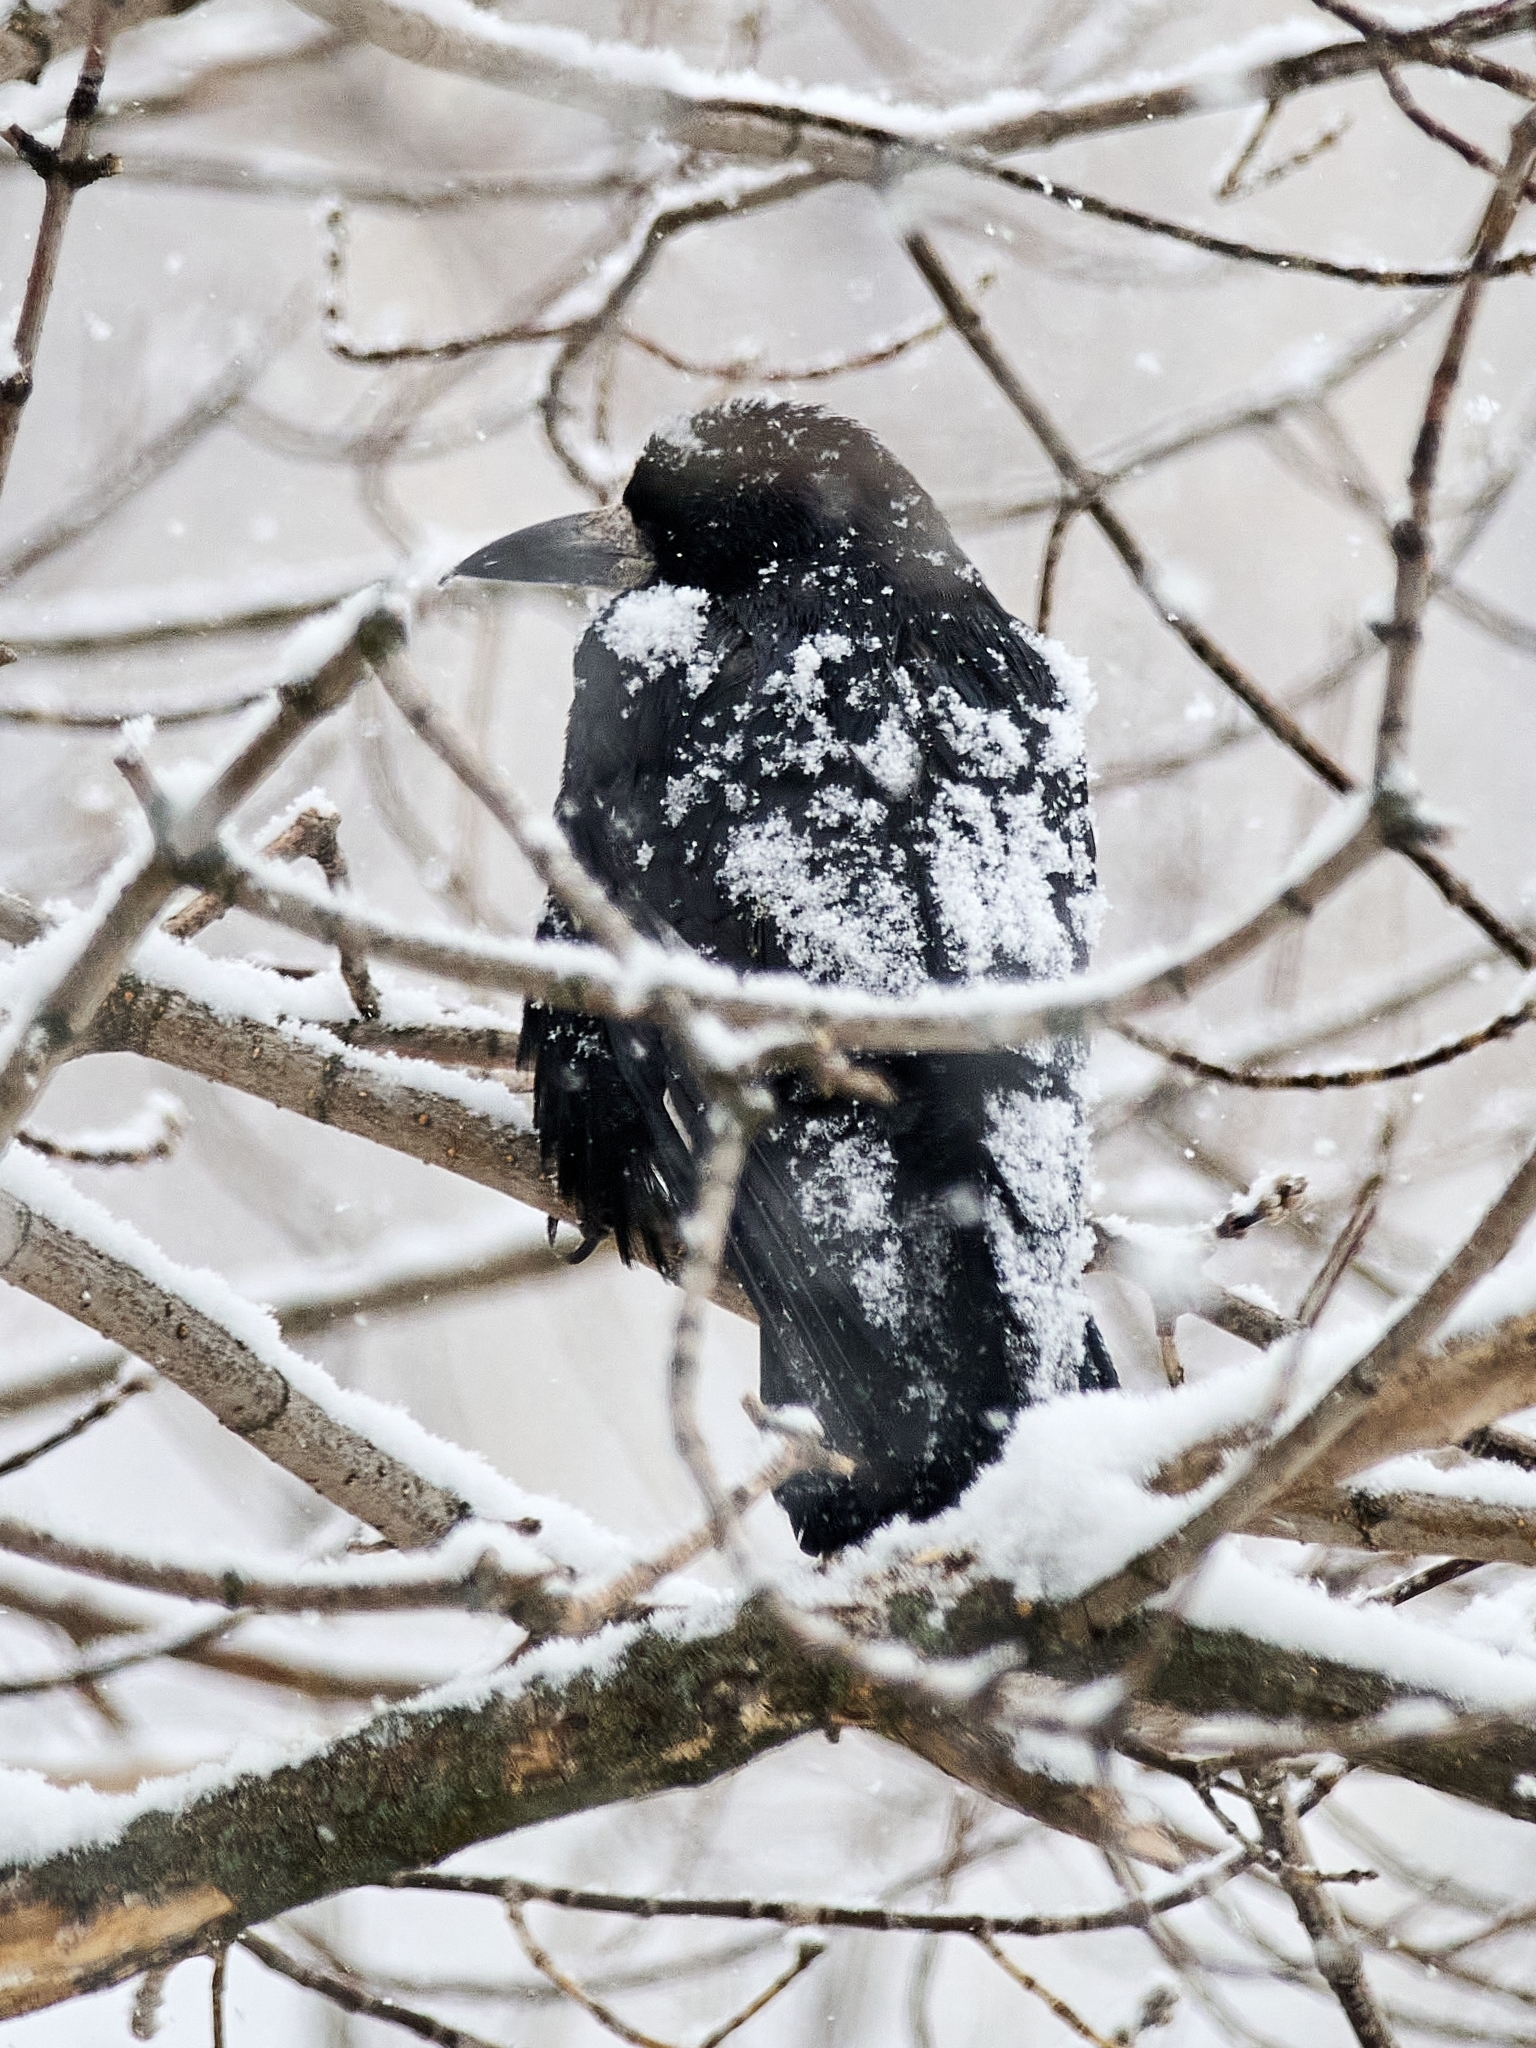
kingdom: Animalia
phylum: Chordata
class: Aves
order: Passeriformes
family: Corvidae
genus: Corvus
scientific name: Corvus frugilegus
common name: Rook
